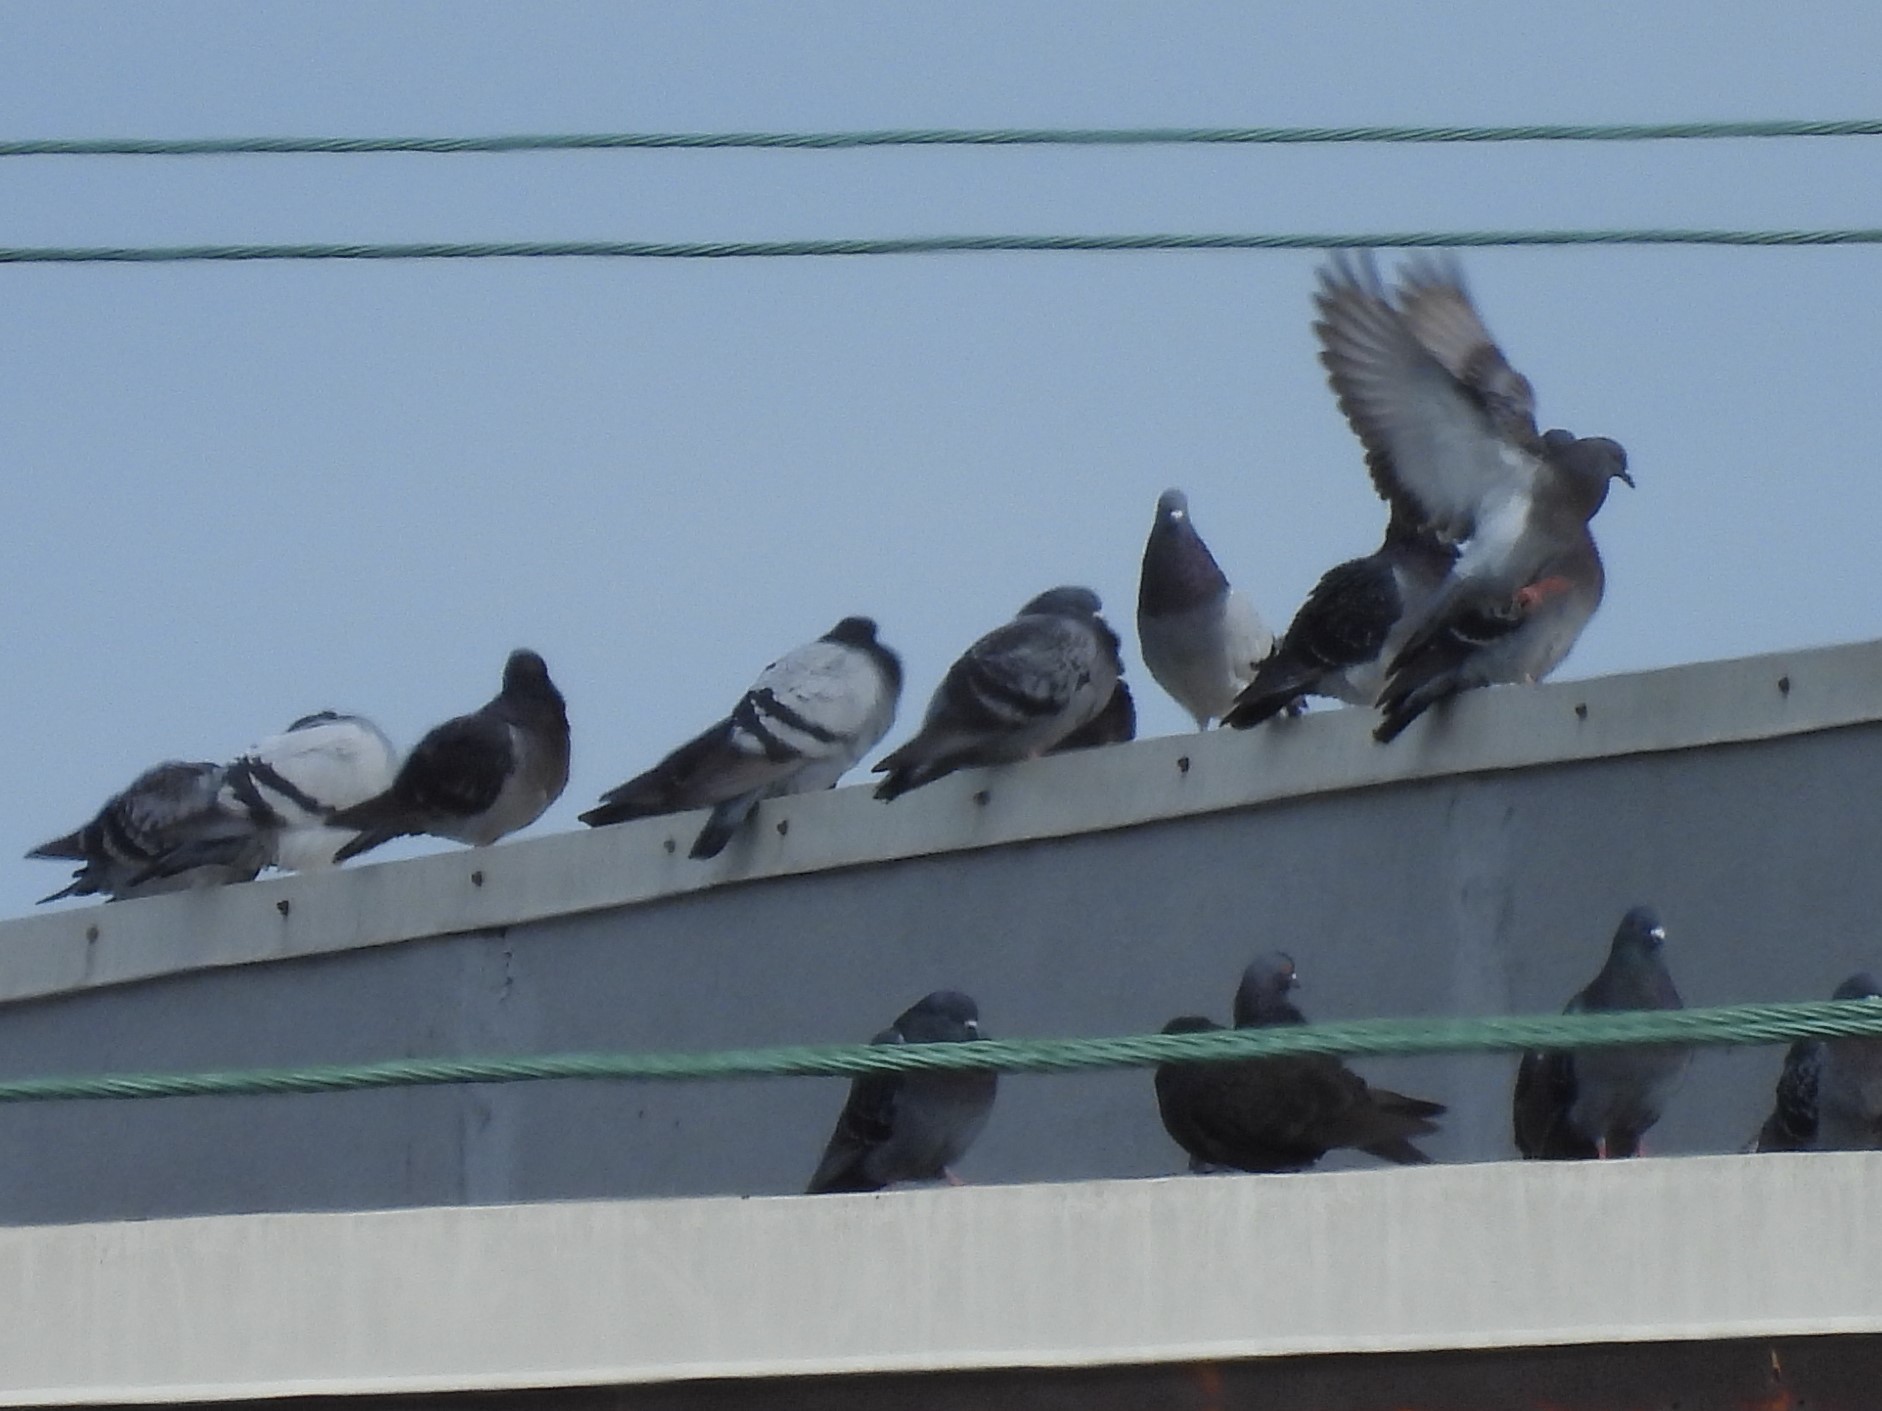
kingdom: Animalia
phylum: Chordata
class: Aves
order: Columbiformes
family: Columbidae
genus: Columba
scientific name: Columba livia
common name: Rock pigeon
